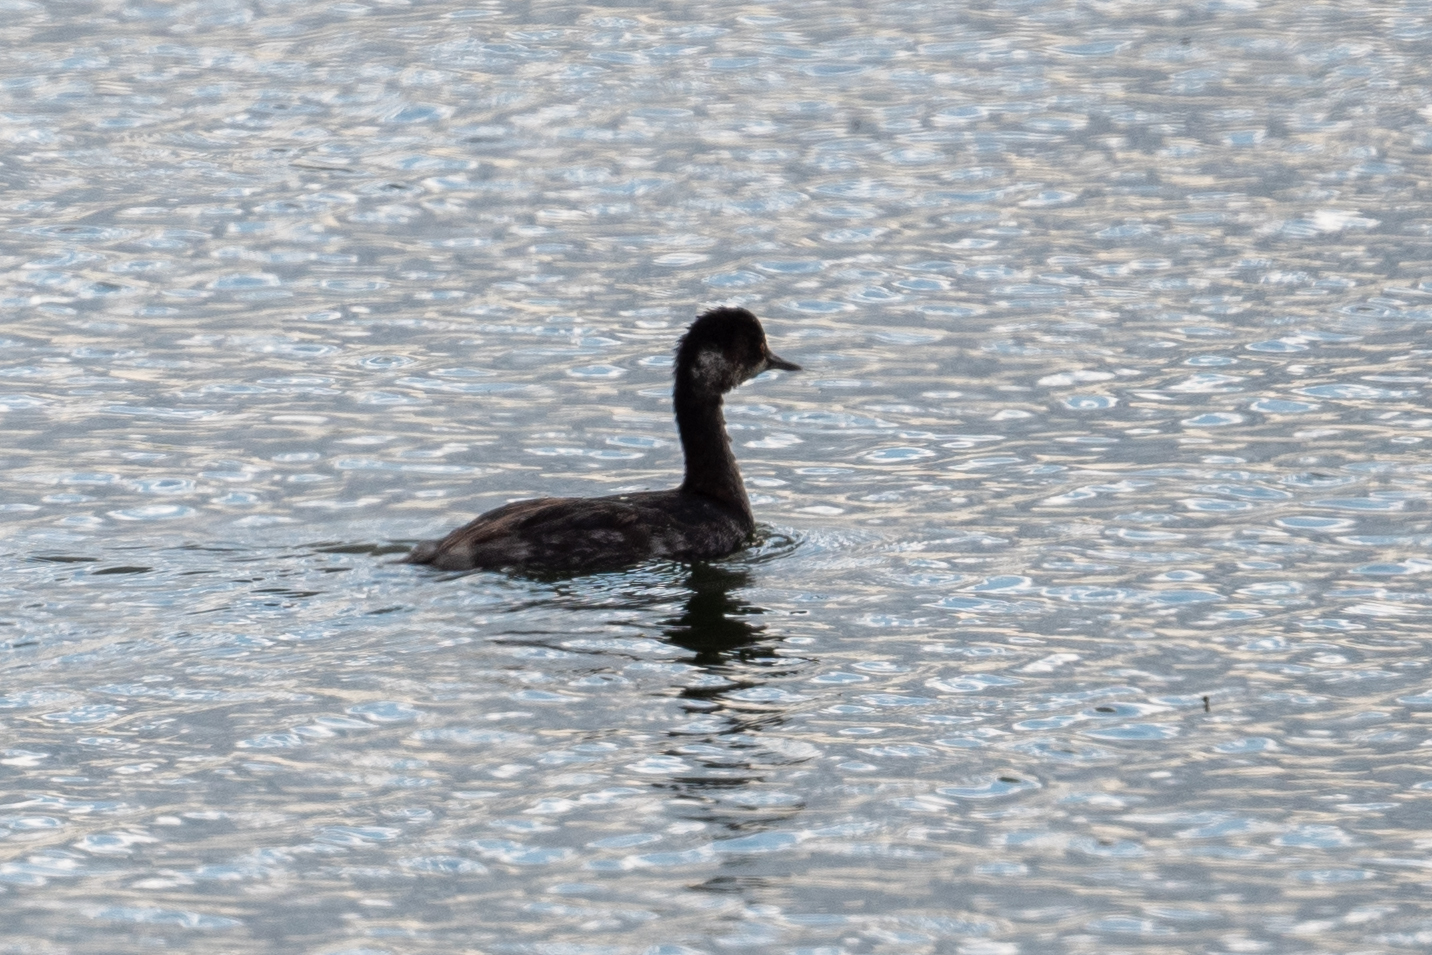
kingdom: Animalia
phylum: Chordata
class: Aves
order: Podicipediformes
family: Podicipedidae
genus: Podiceps
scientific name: Podiceps nigricollis
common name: Black-necked grebe
